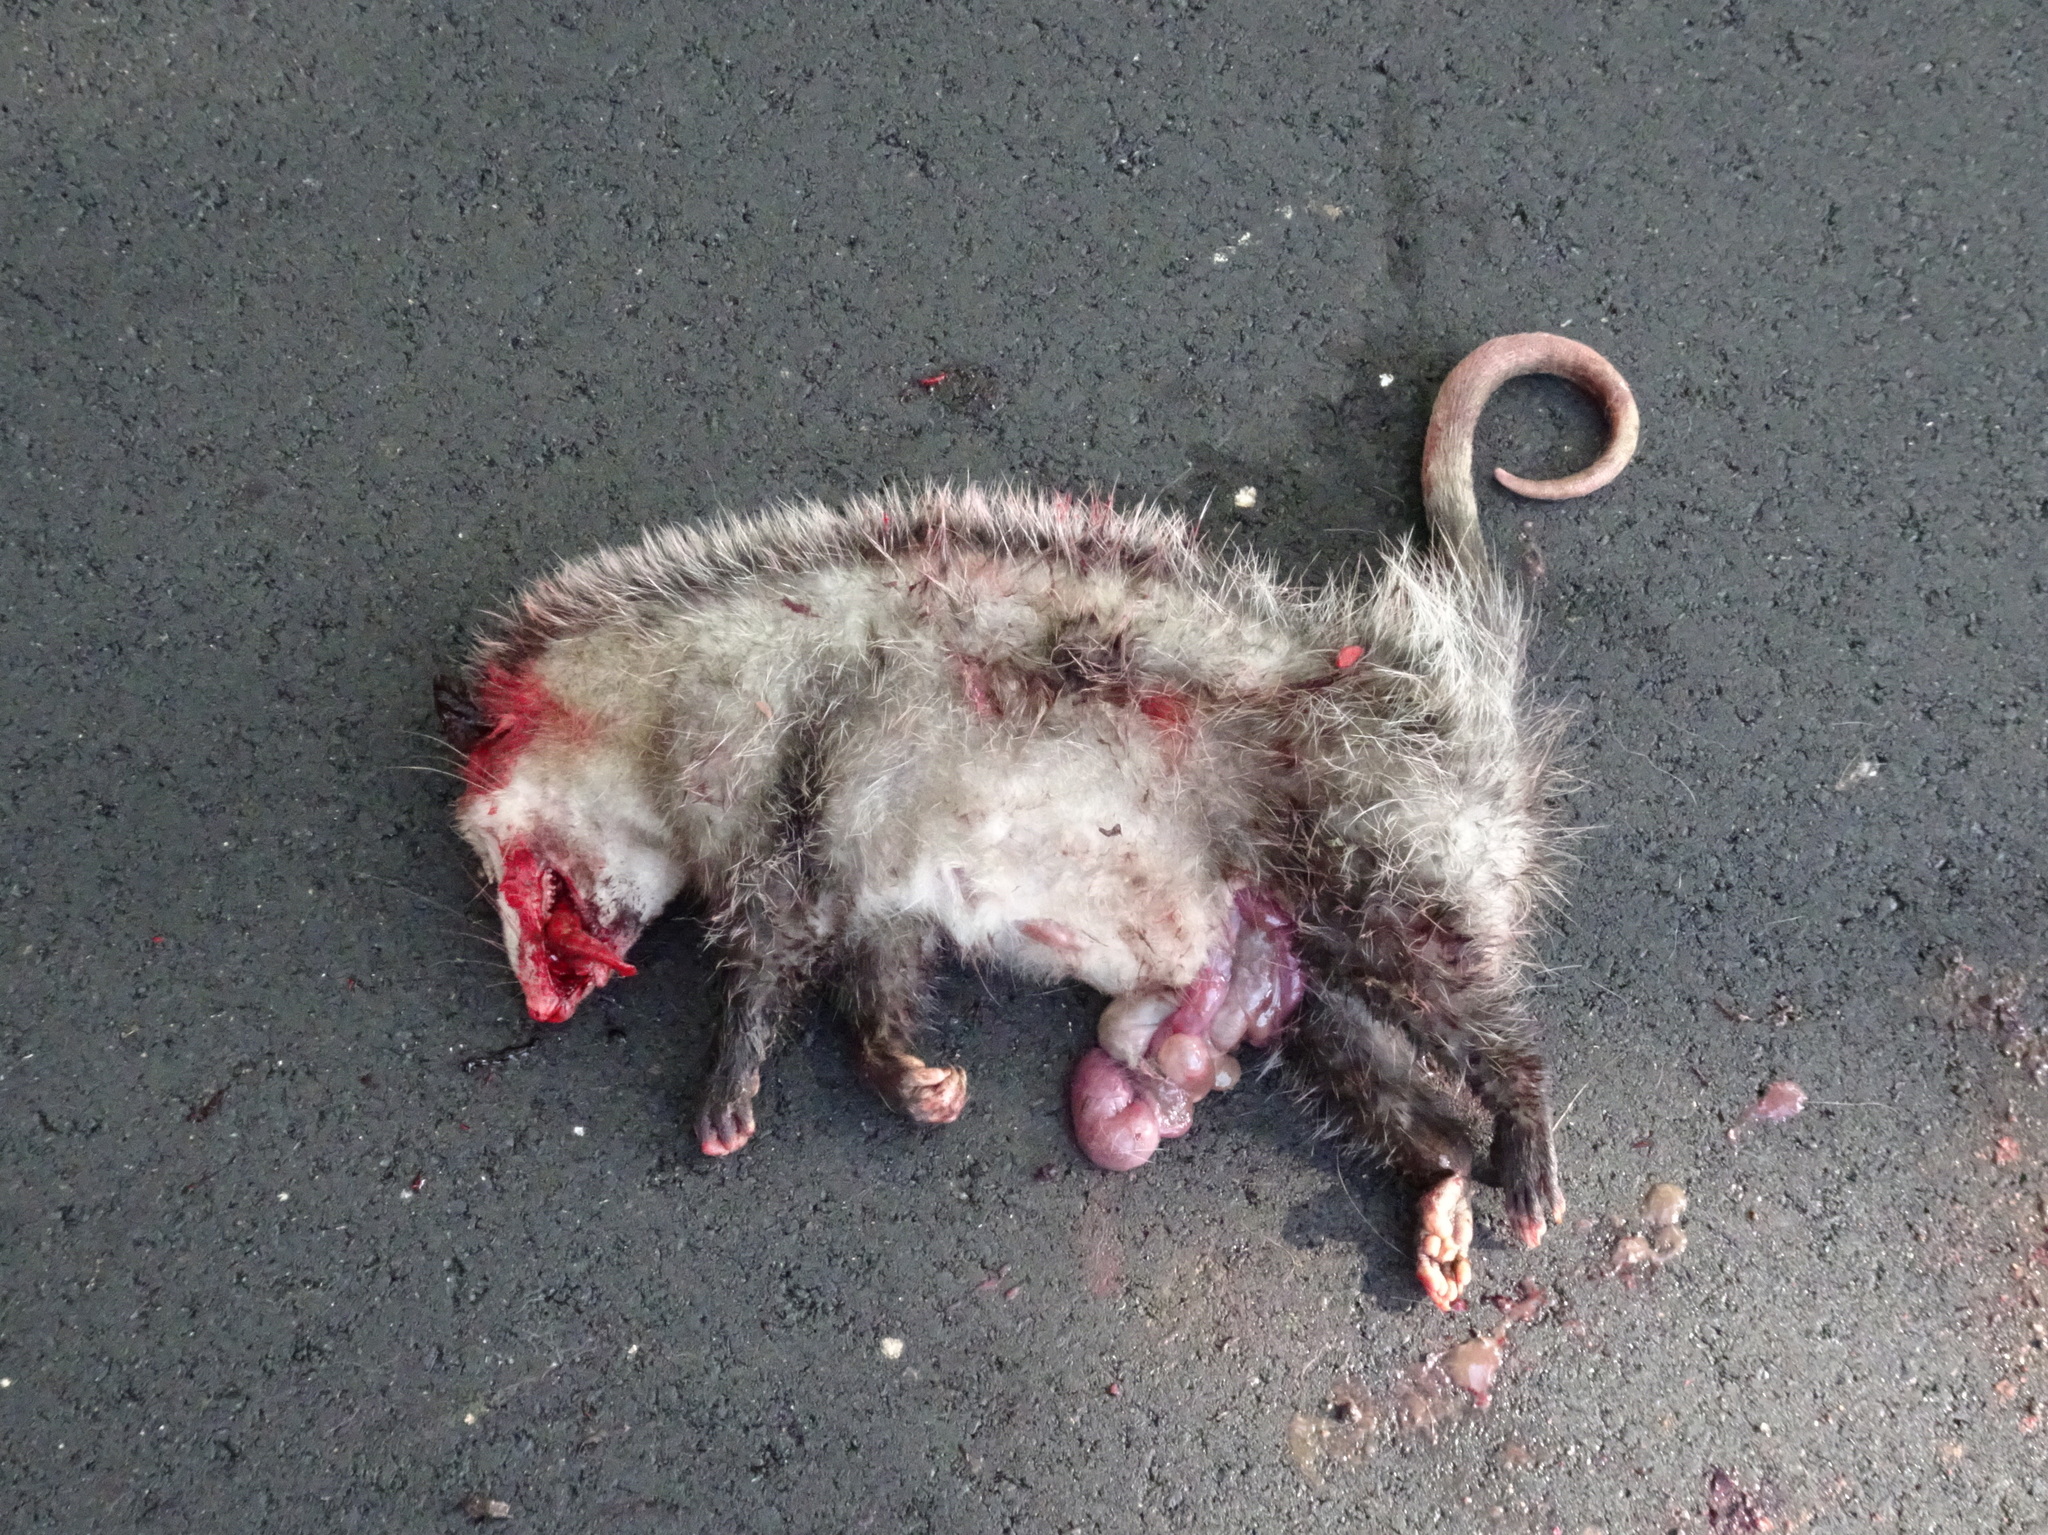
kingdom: Animalia
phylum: Chordata
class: Mammalia
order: Didelphimorphia
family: Didelphidae
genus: Didelphis
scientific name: Didelphis virginiana
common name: Virginia opossum
